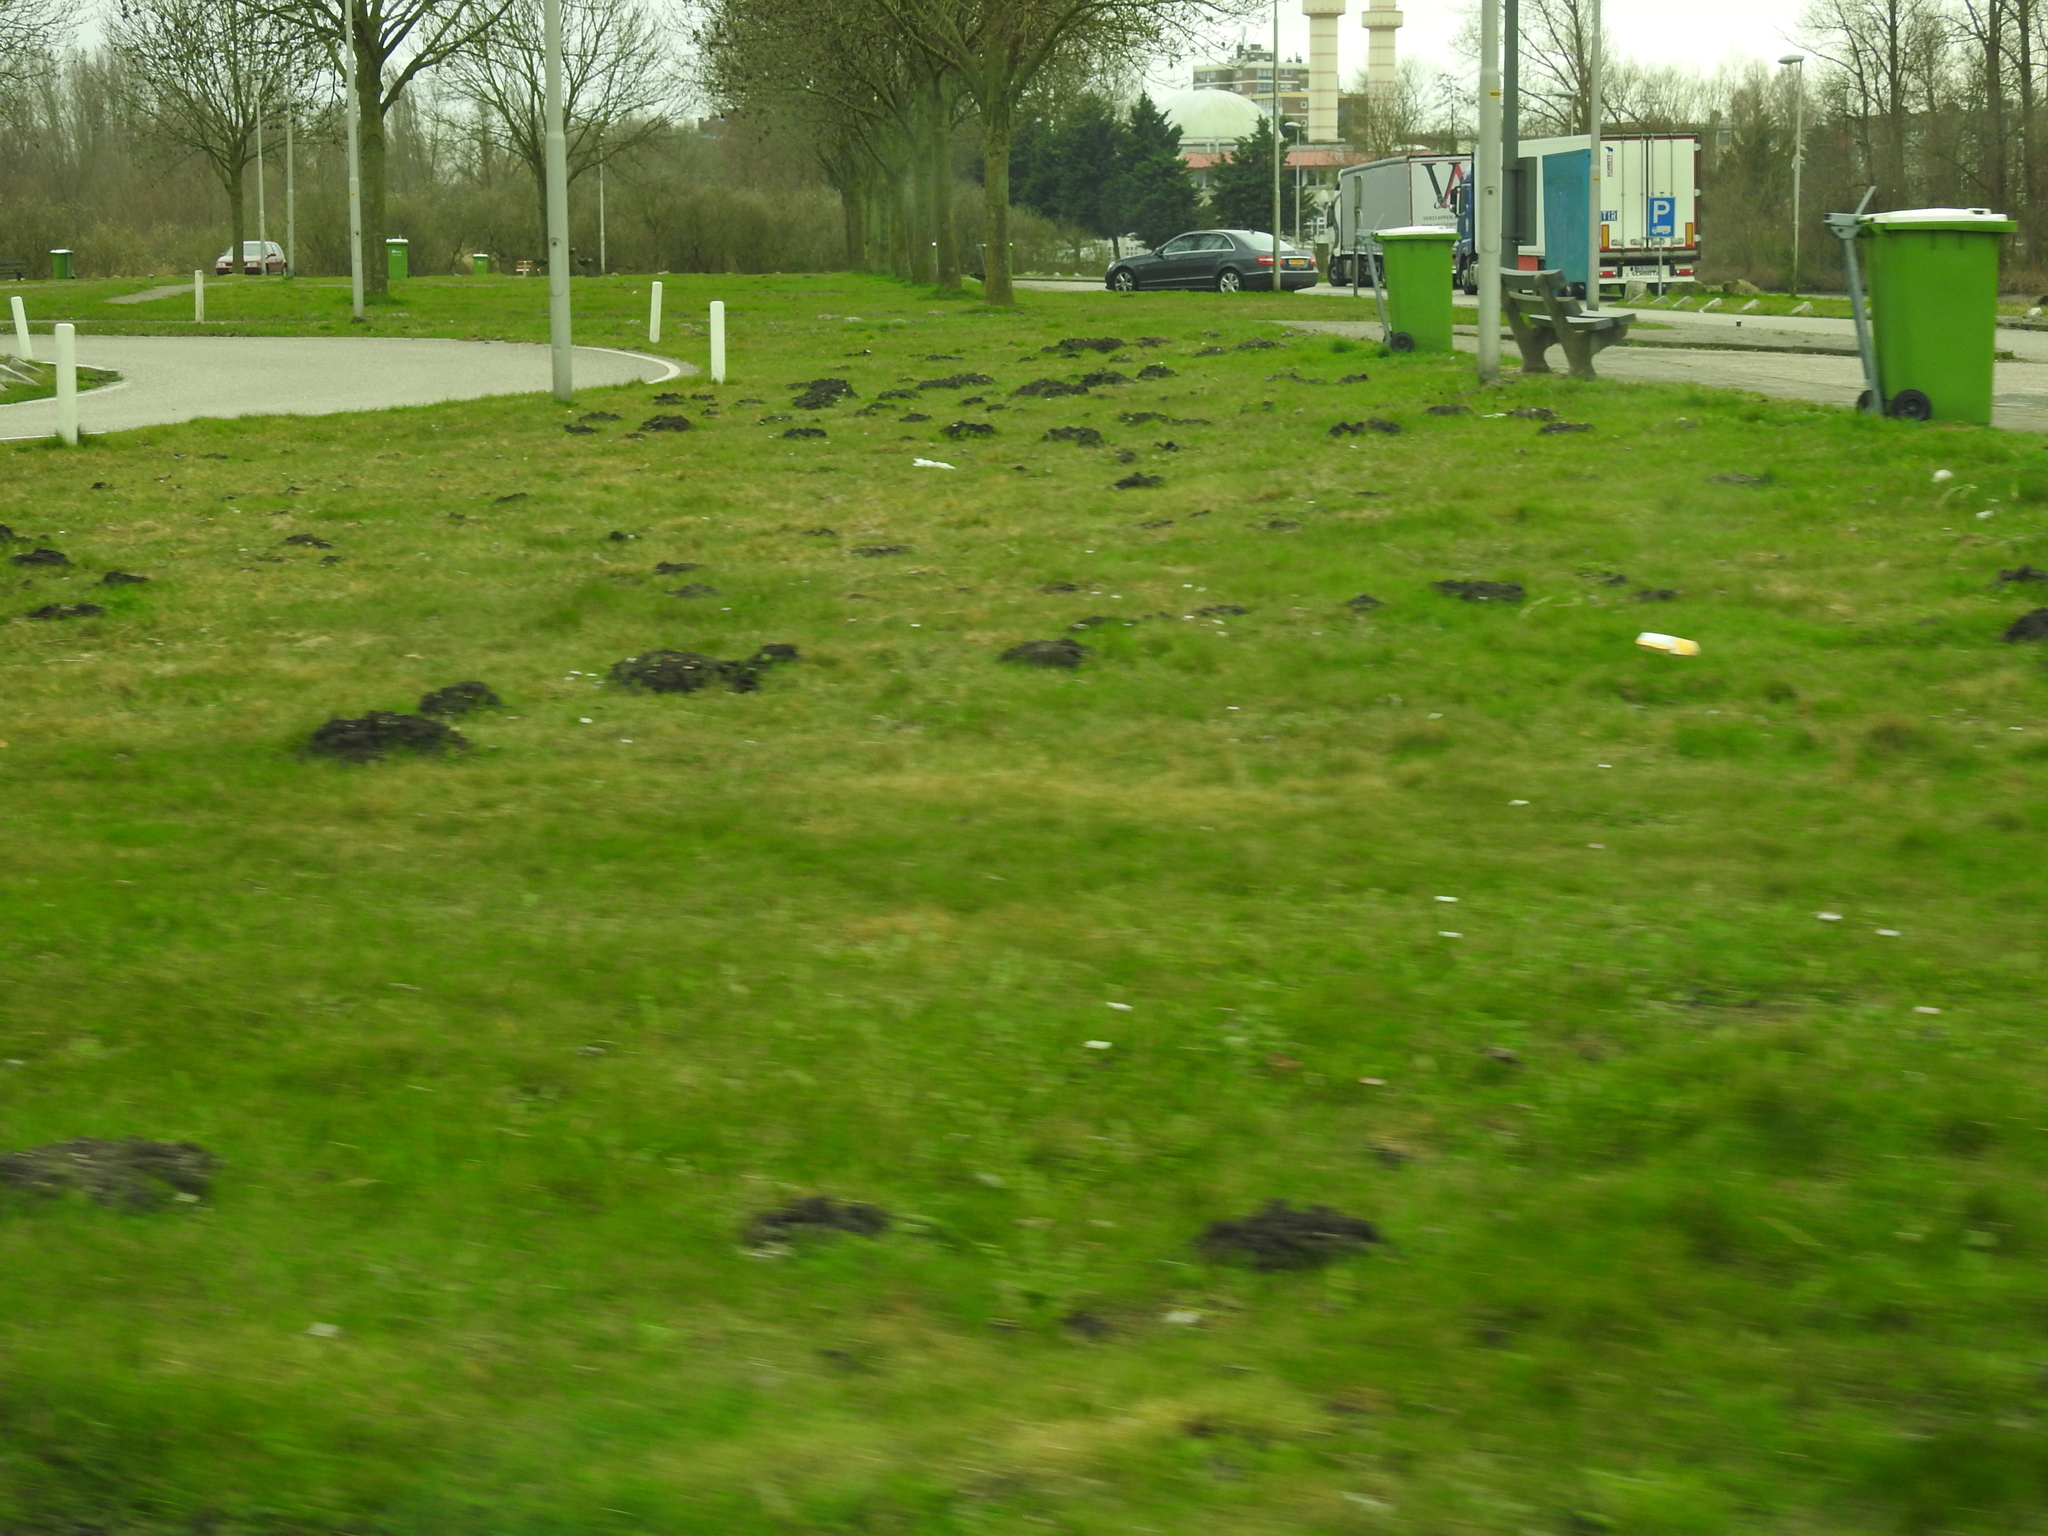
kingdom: Animalia
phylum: Chordata
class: Mammalia
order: Soricomorpha
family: Talpidae
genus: Talpa
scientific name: Talpa europaea
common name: European mole
